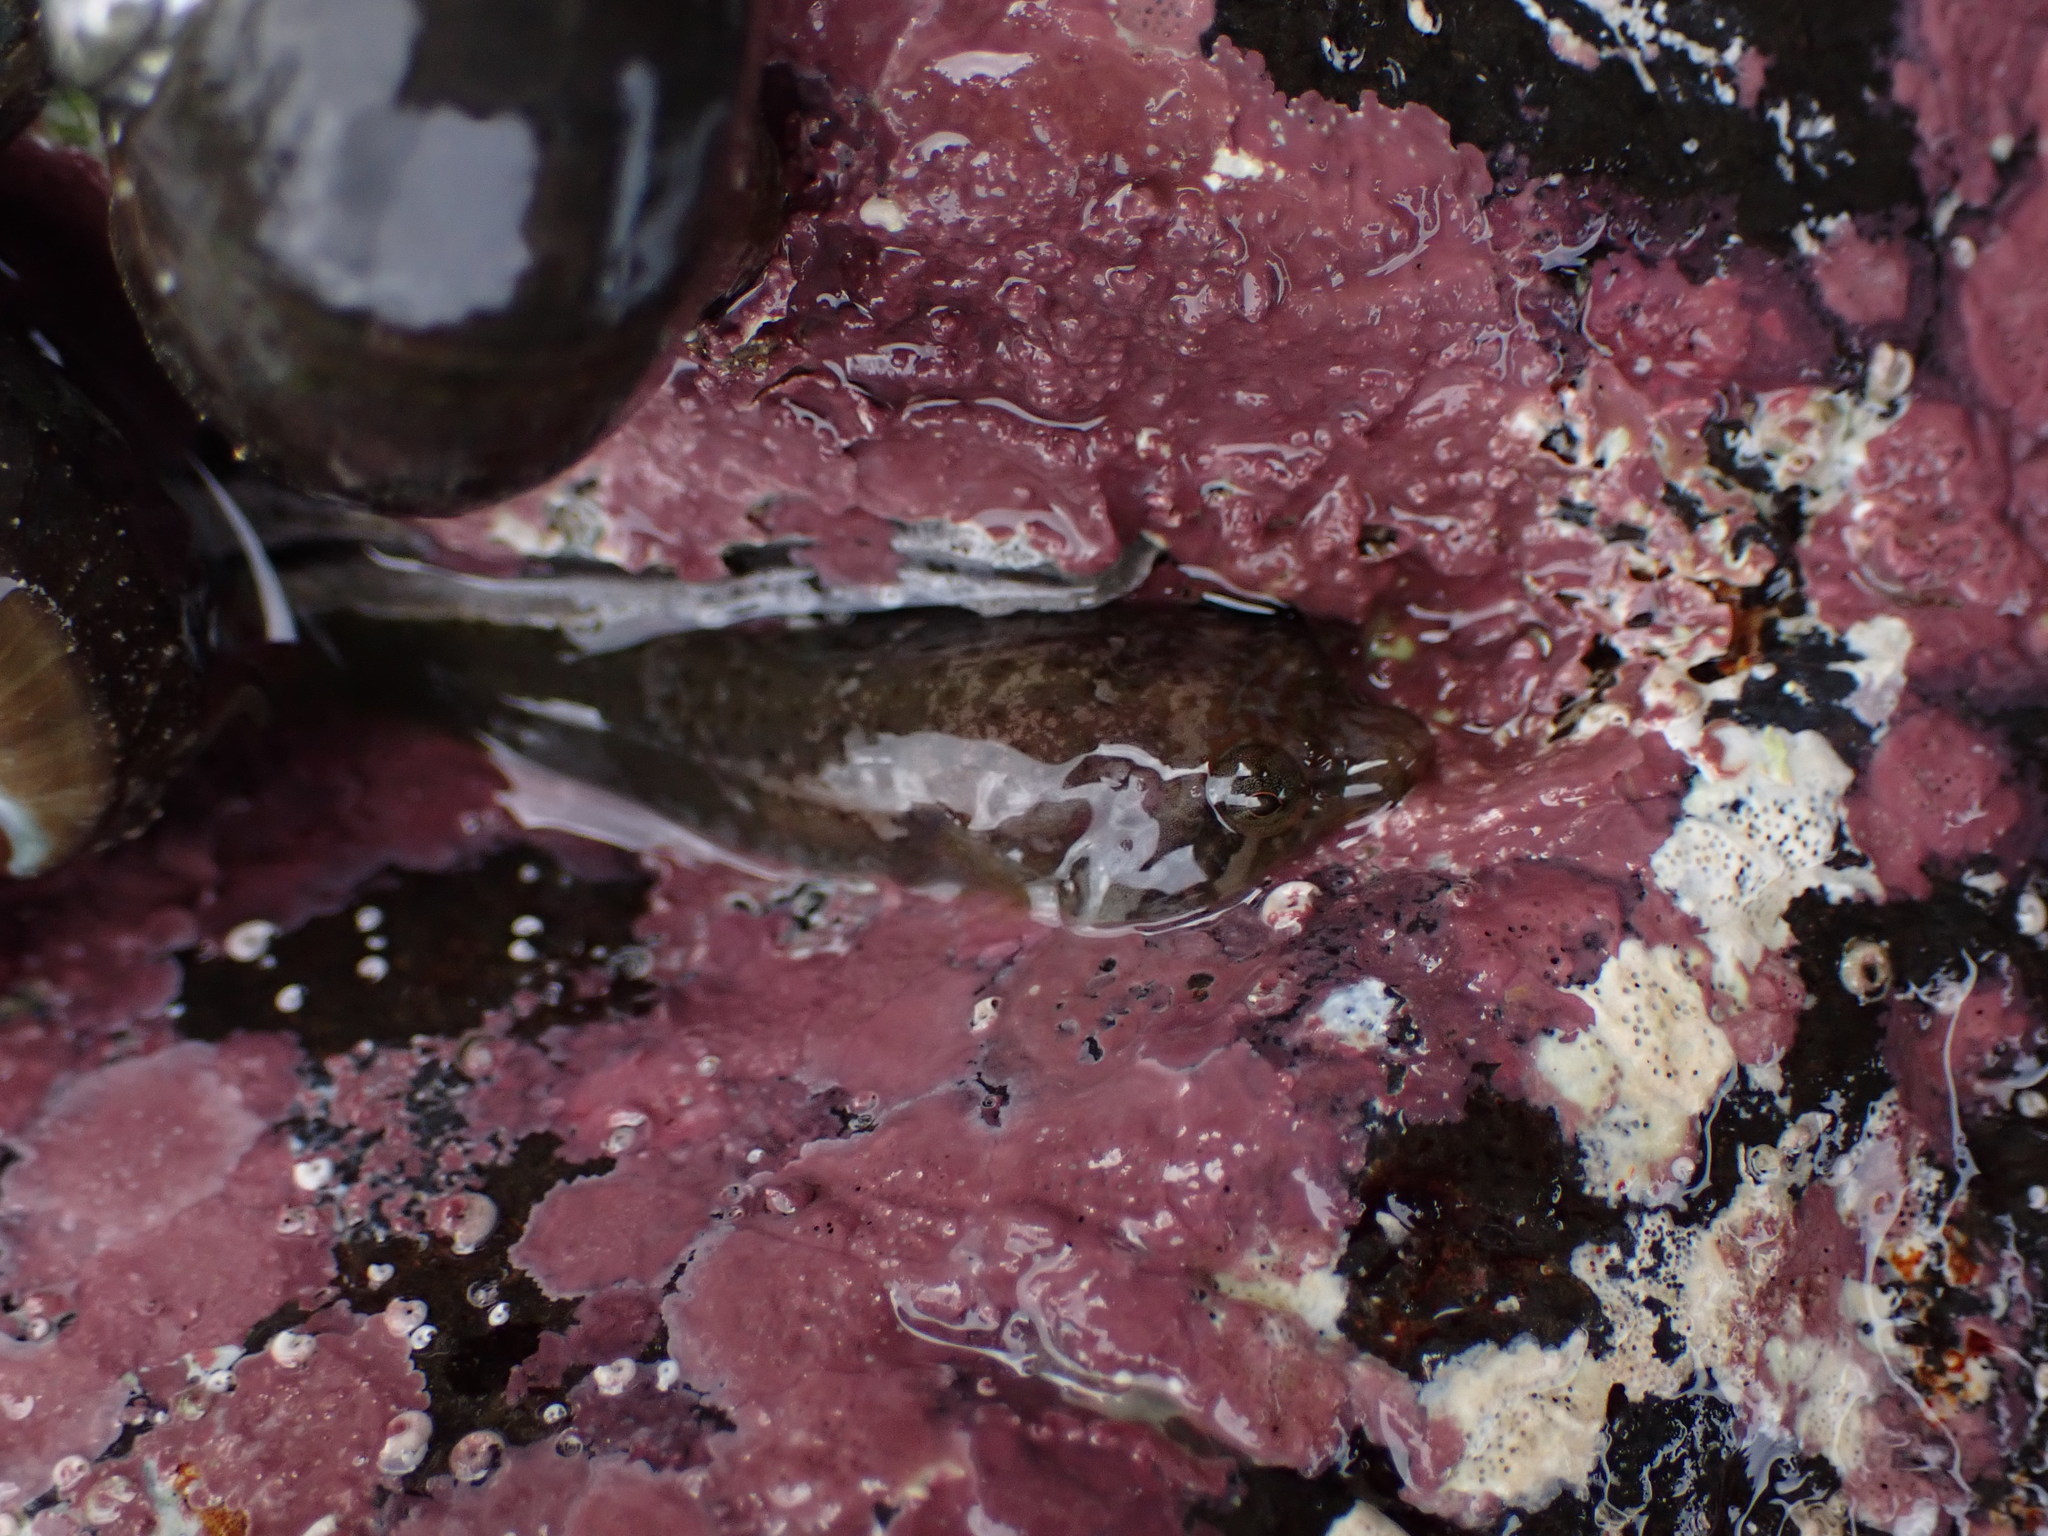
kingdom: Animalia
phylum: Chordata
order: Gobiesociformes
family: Gobiesocidae
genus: Trachelochismus
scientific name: Trachelochismus melobesia
